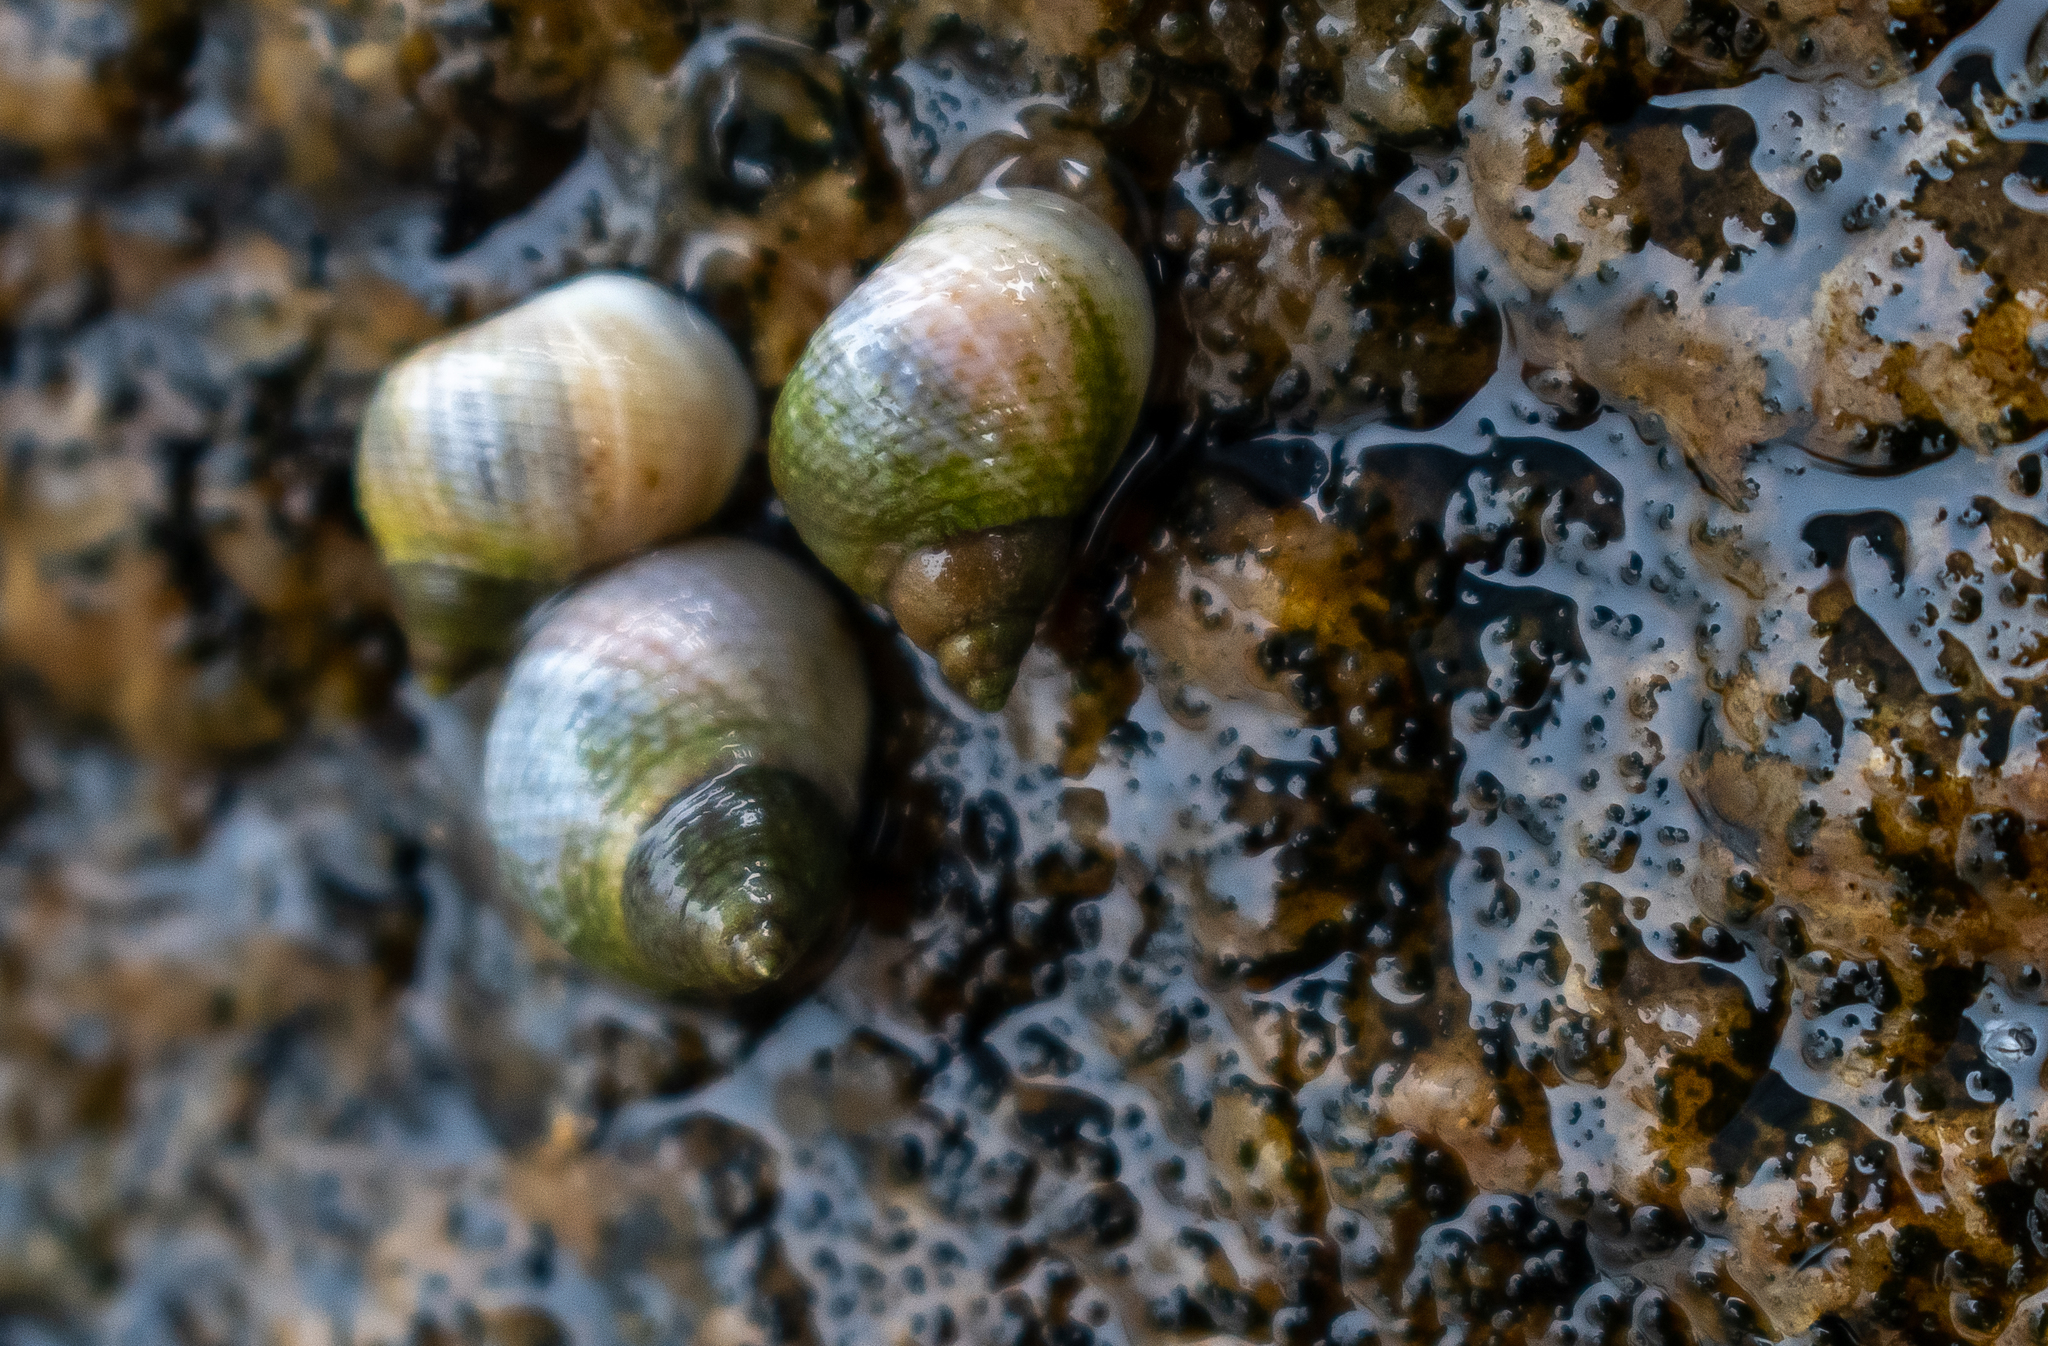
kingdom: Animalia
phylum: Mollusca
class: Gastropoda
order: Littorinimorpha
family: Littorinidae
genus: Littoraria
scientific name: Littoraria flava
